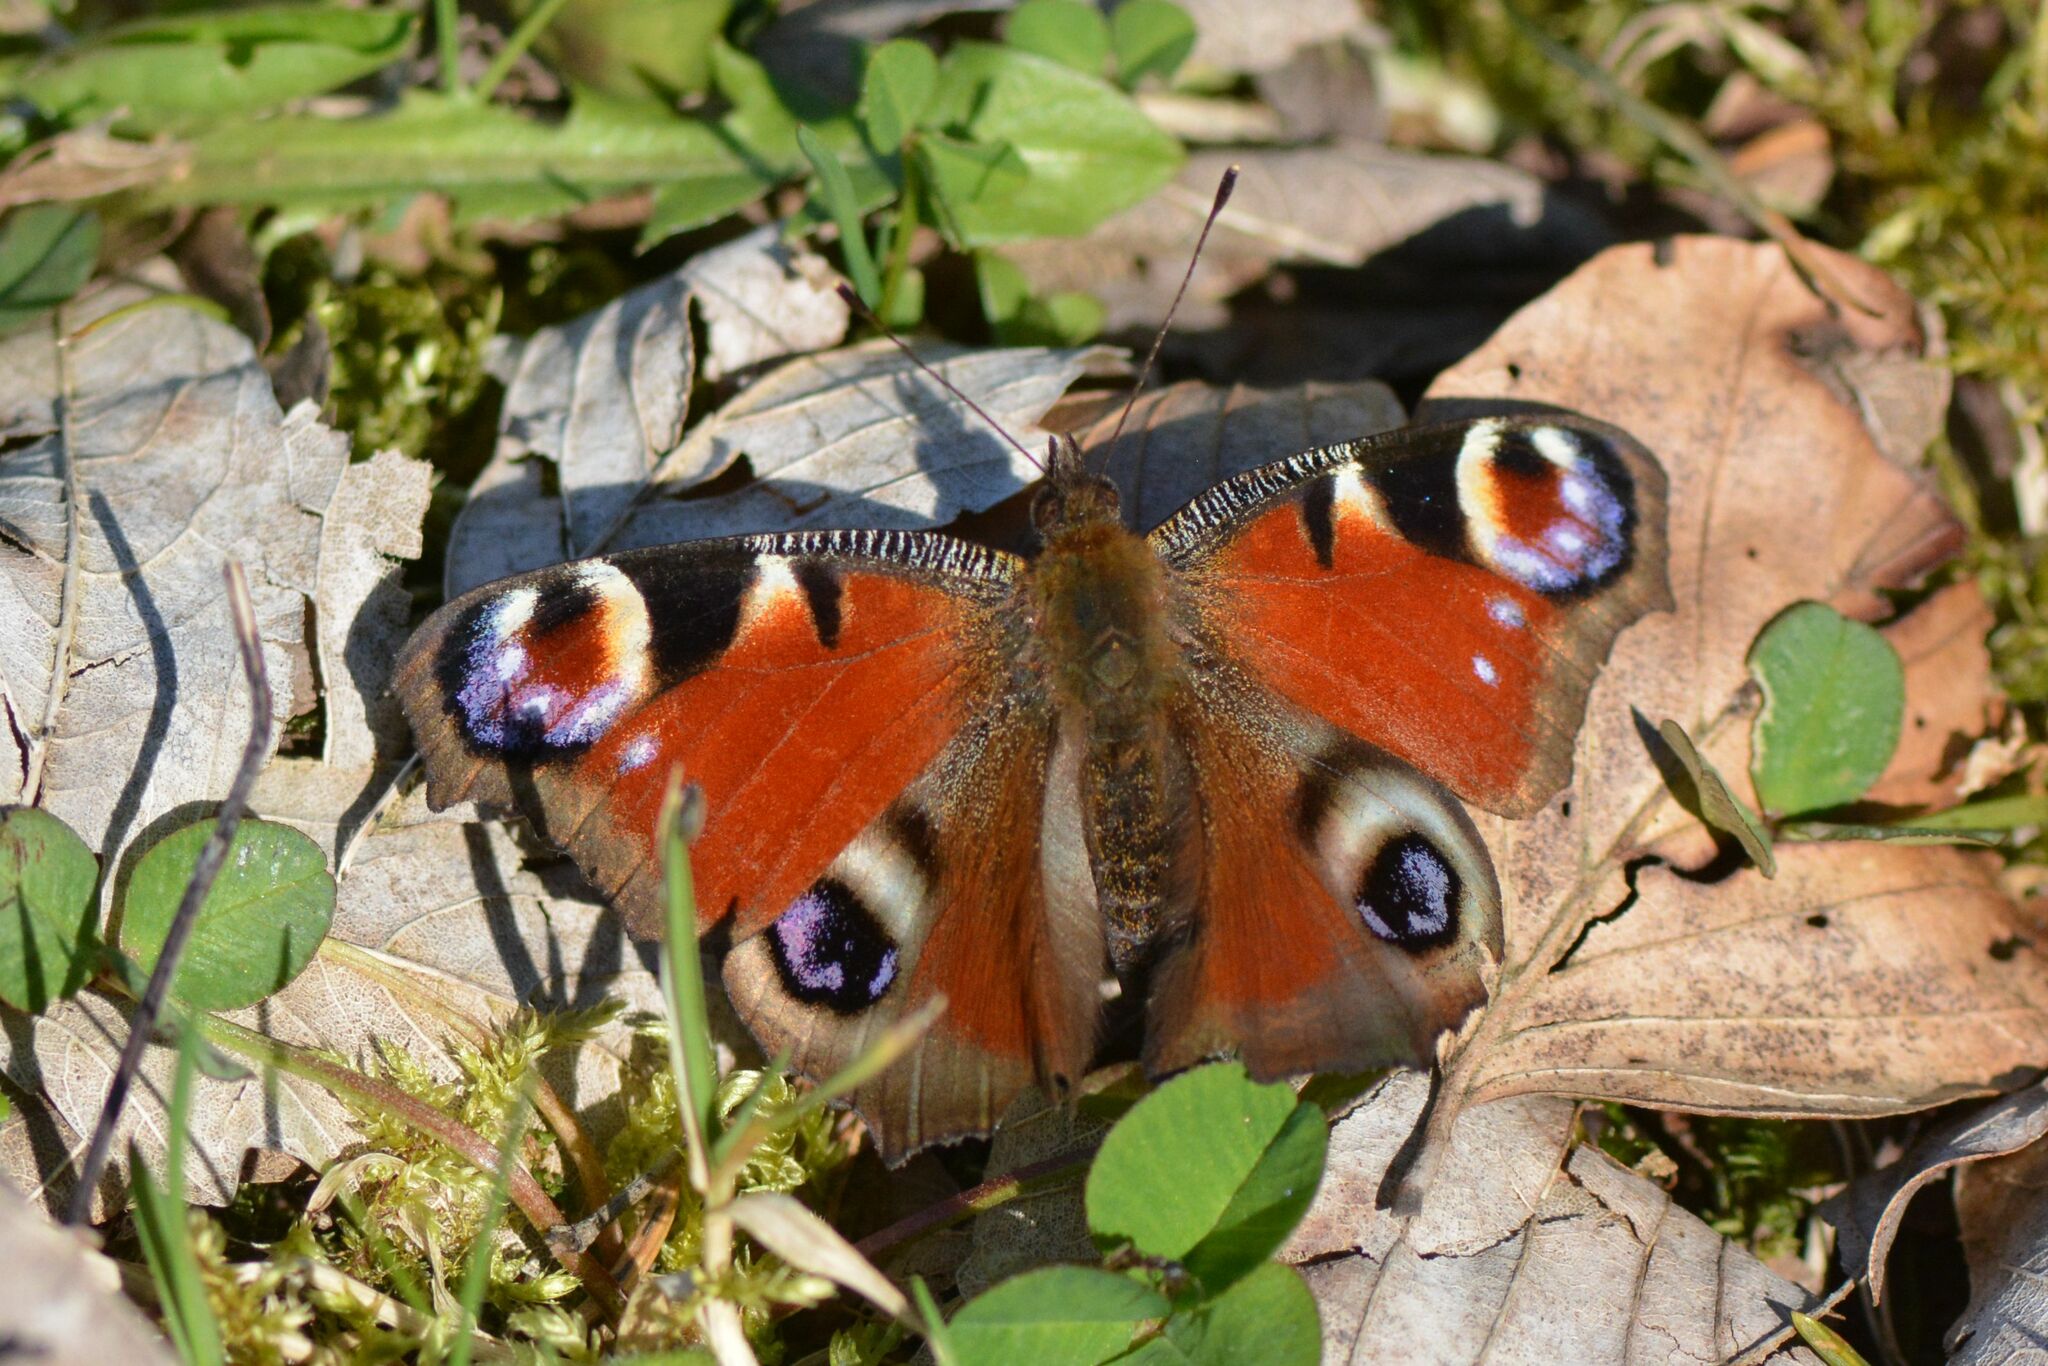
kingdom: Animalia
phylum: Arthropoda
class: Insecta
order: Lepidoptera
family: Nymphalidae
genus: Aglais
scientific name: Aglais io
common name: Peacock
